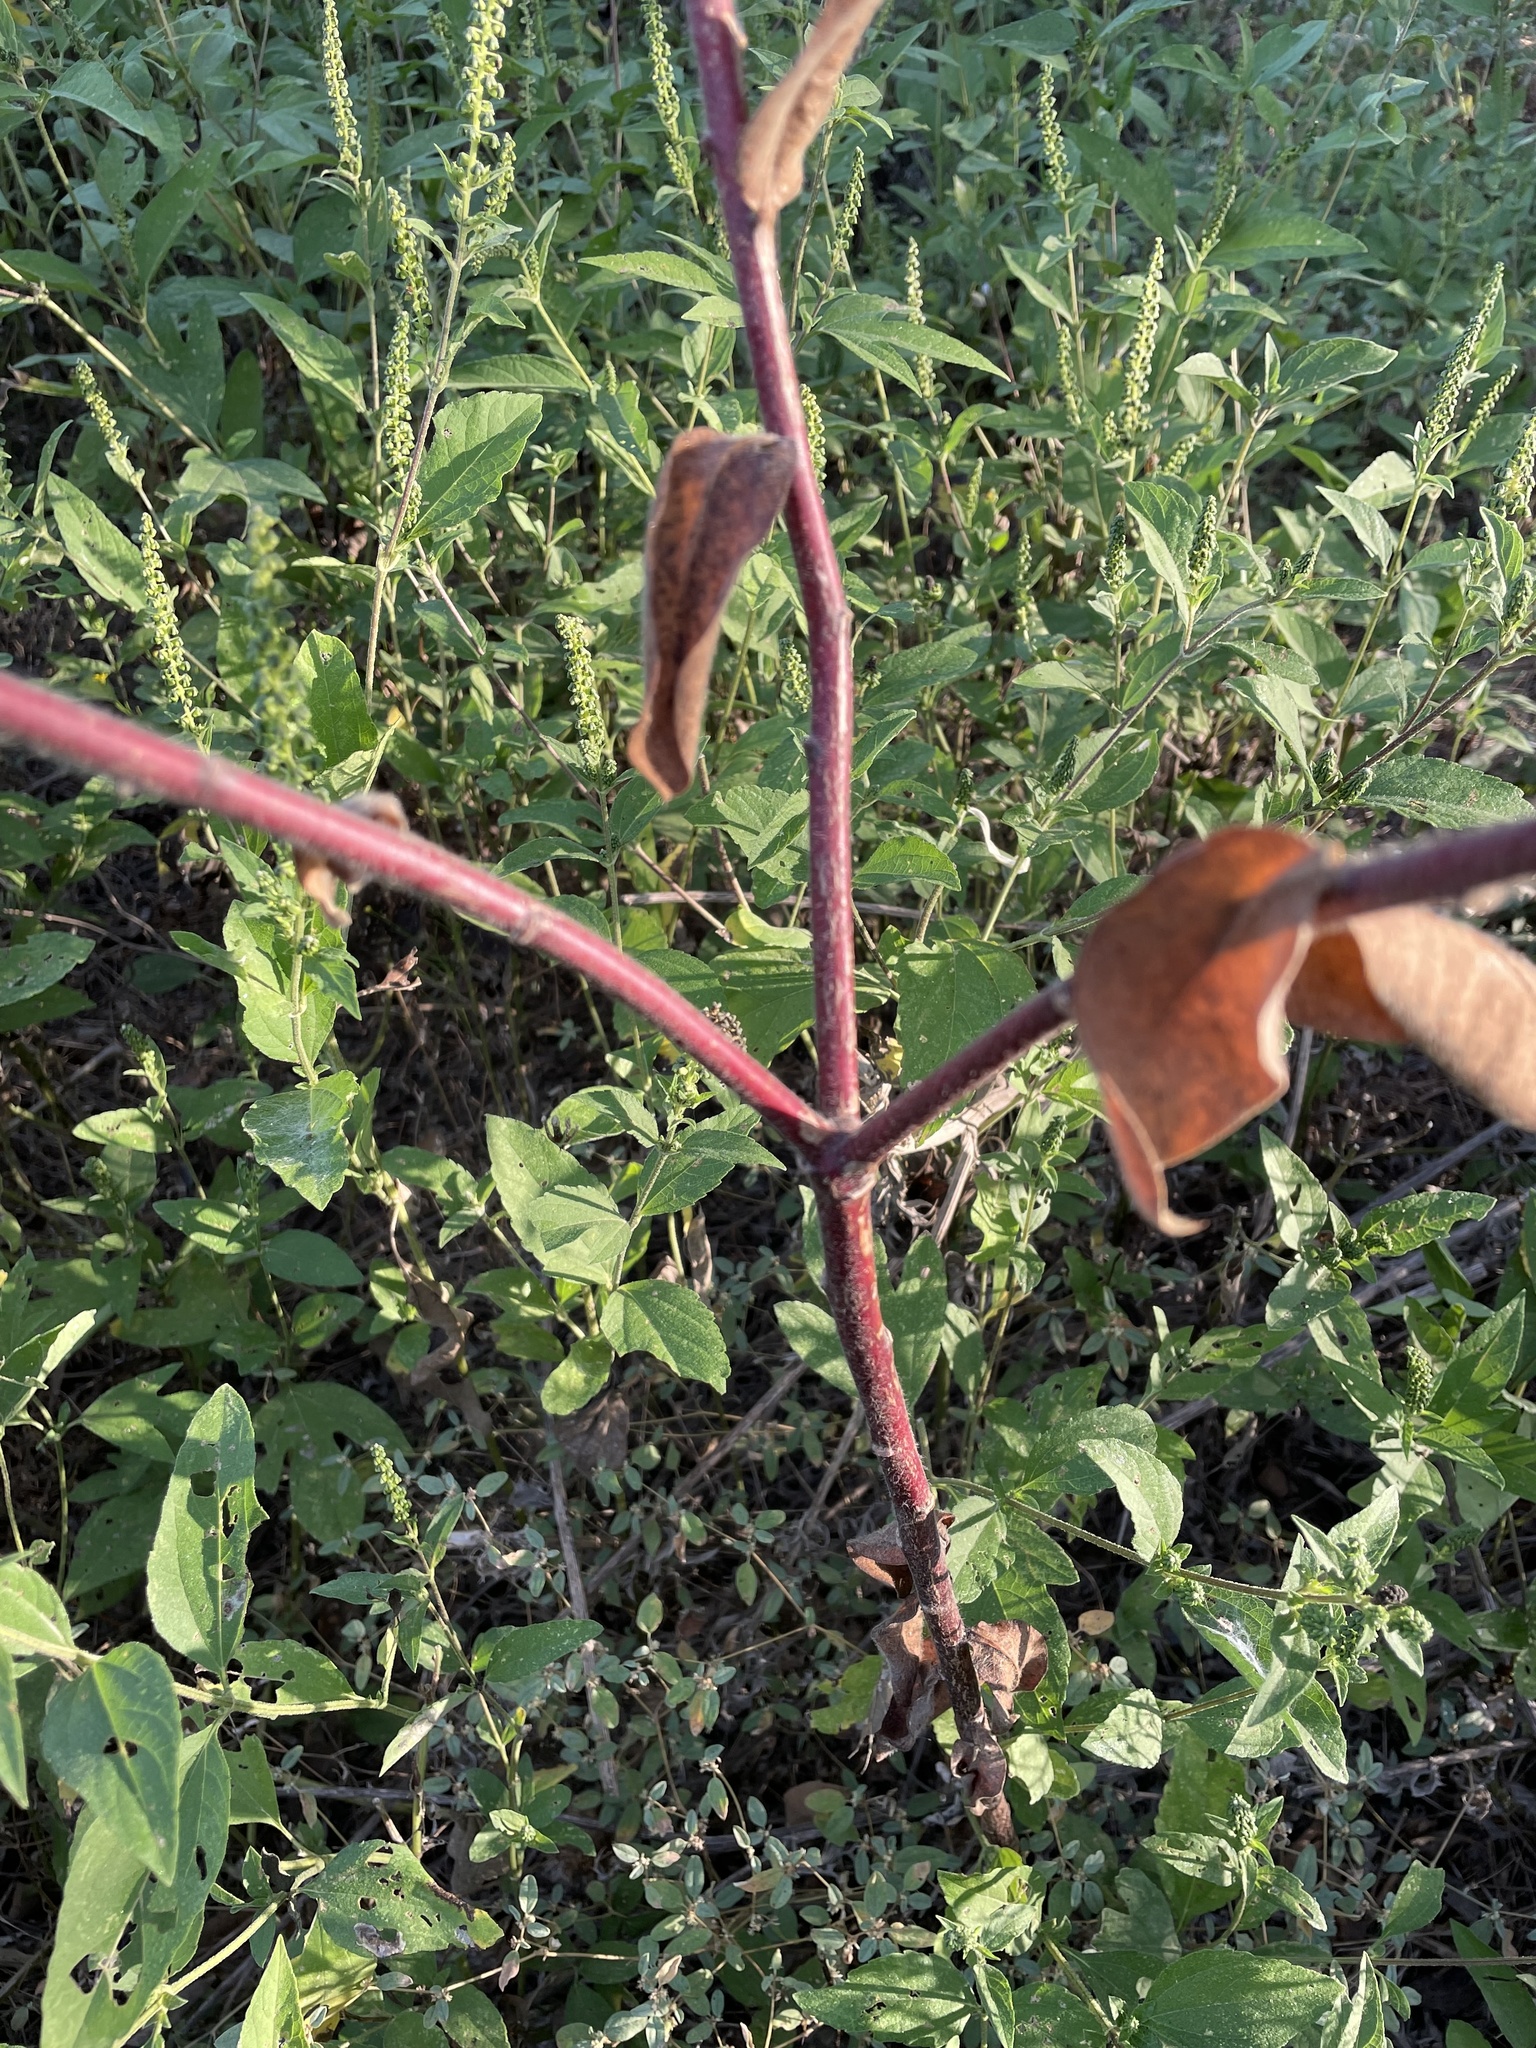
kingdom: Plantae
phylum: Tracheophyta
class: Magnoliopsida
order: Malpighiales
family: Euphorbiaceae
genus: Euphorbia
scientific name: Euphorbia bicolor
